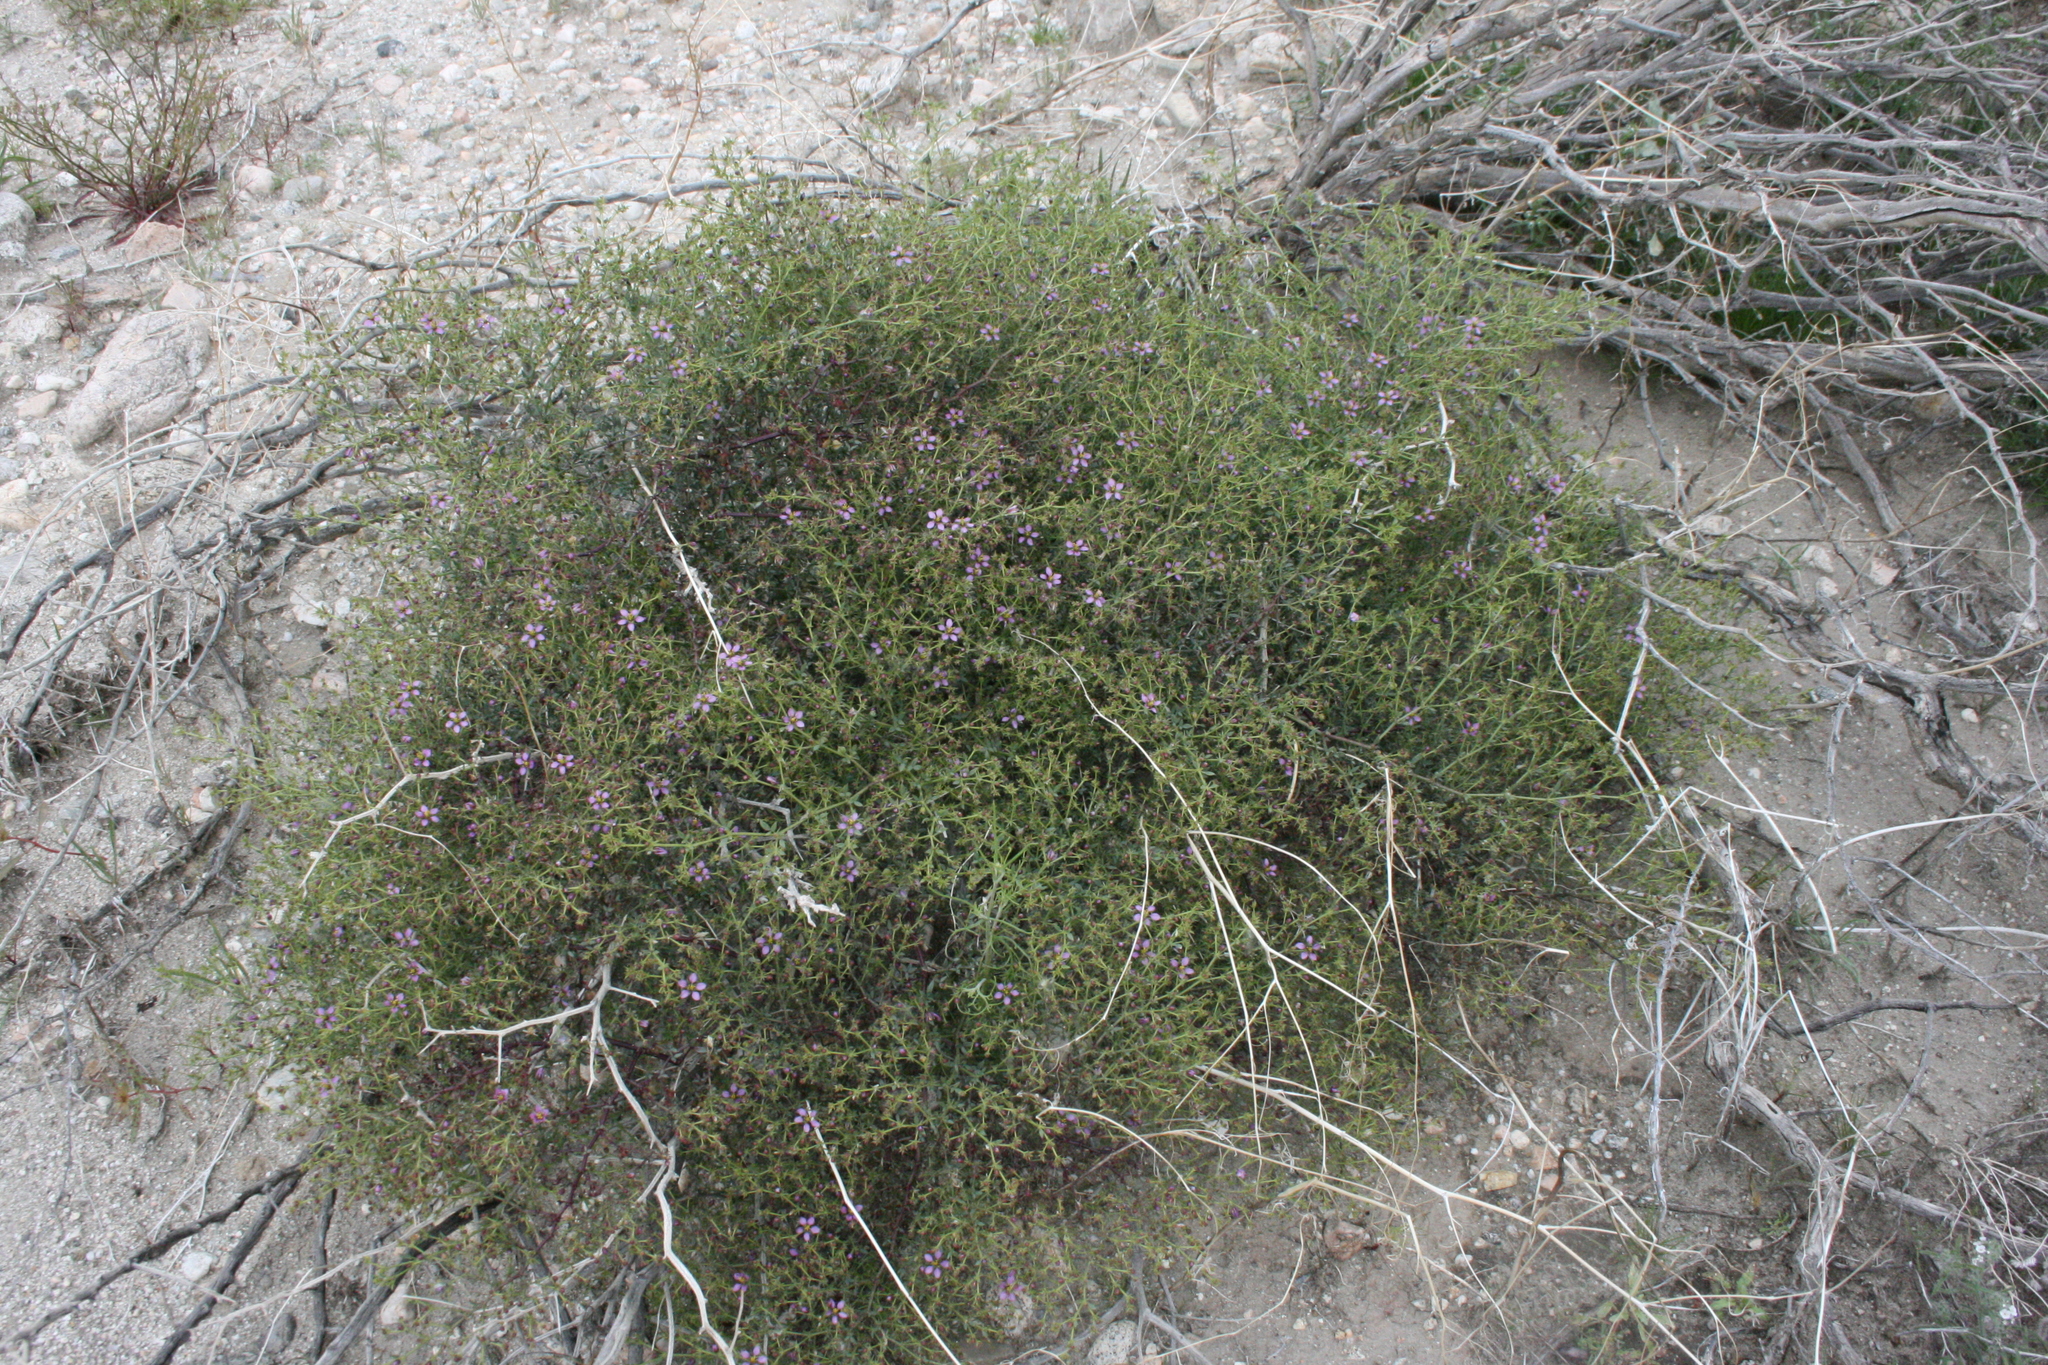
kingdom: Plantae
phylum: Tracheophyta
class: Magnoliopsida
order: Zygophyllales
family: Zygophyllaceae
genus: Fagonia
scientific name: Fagonia laevis
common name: California fagonbush
